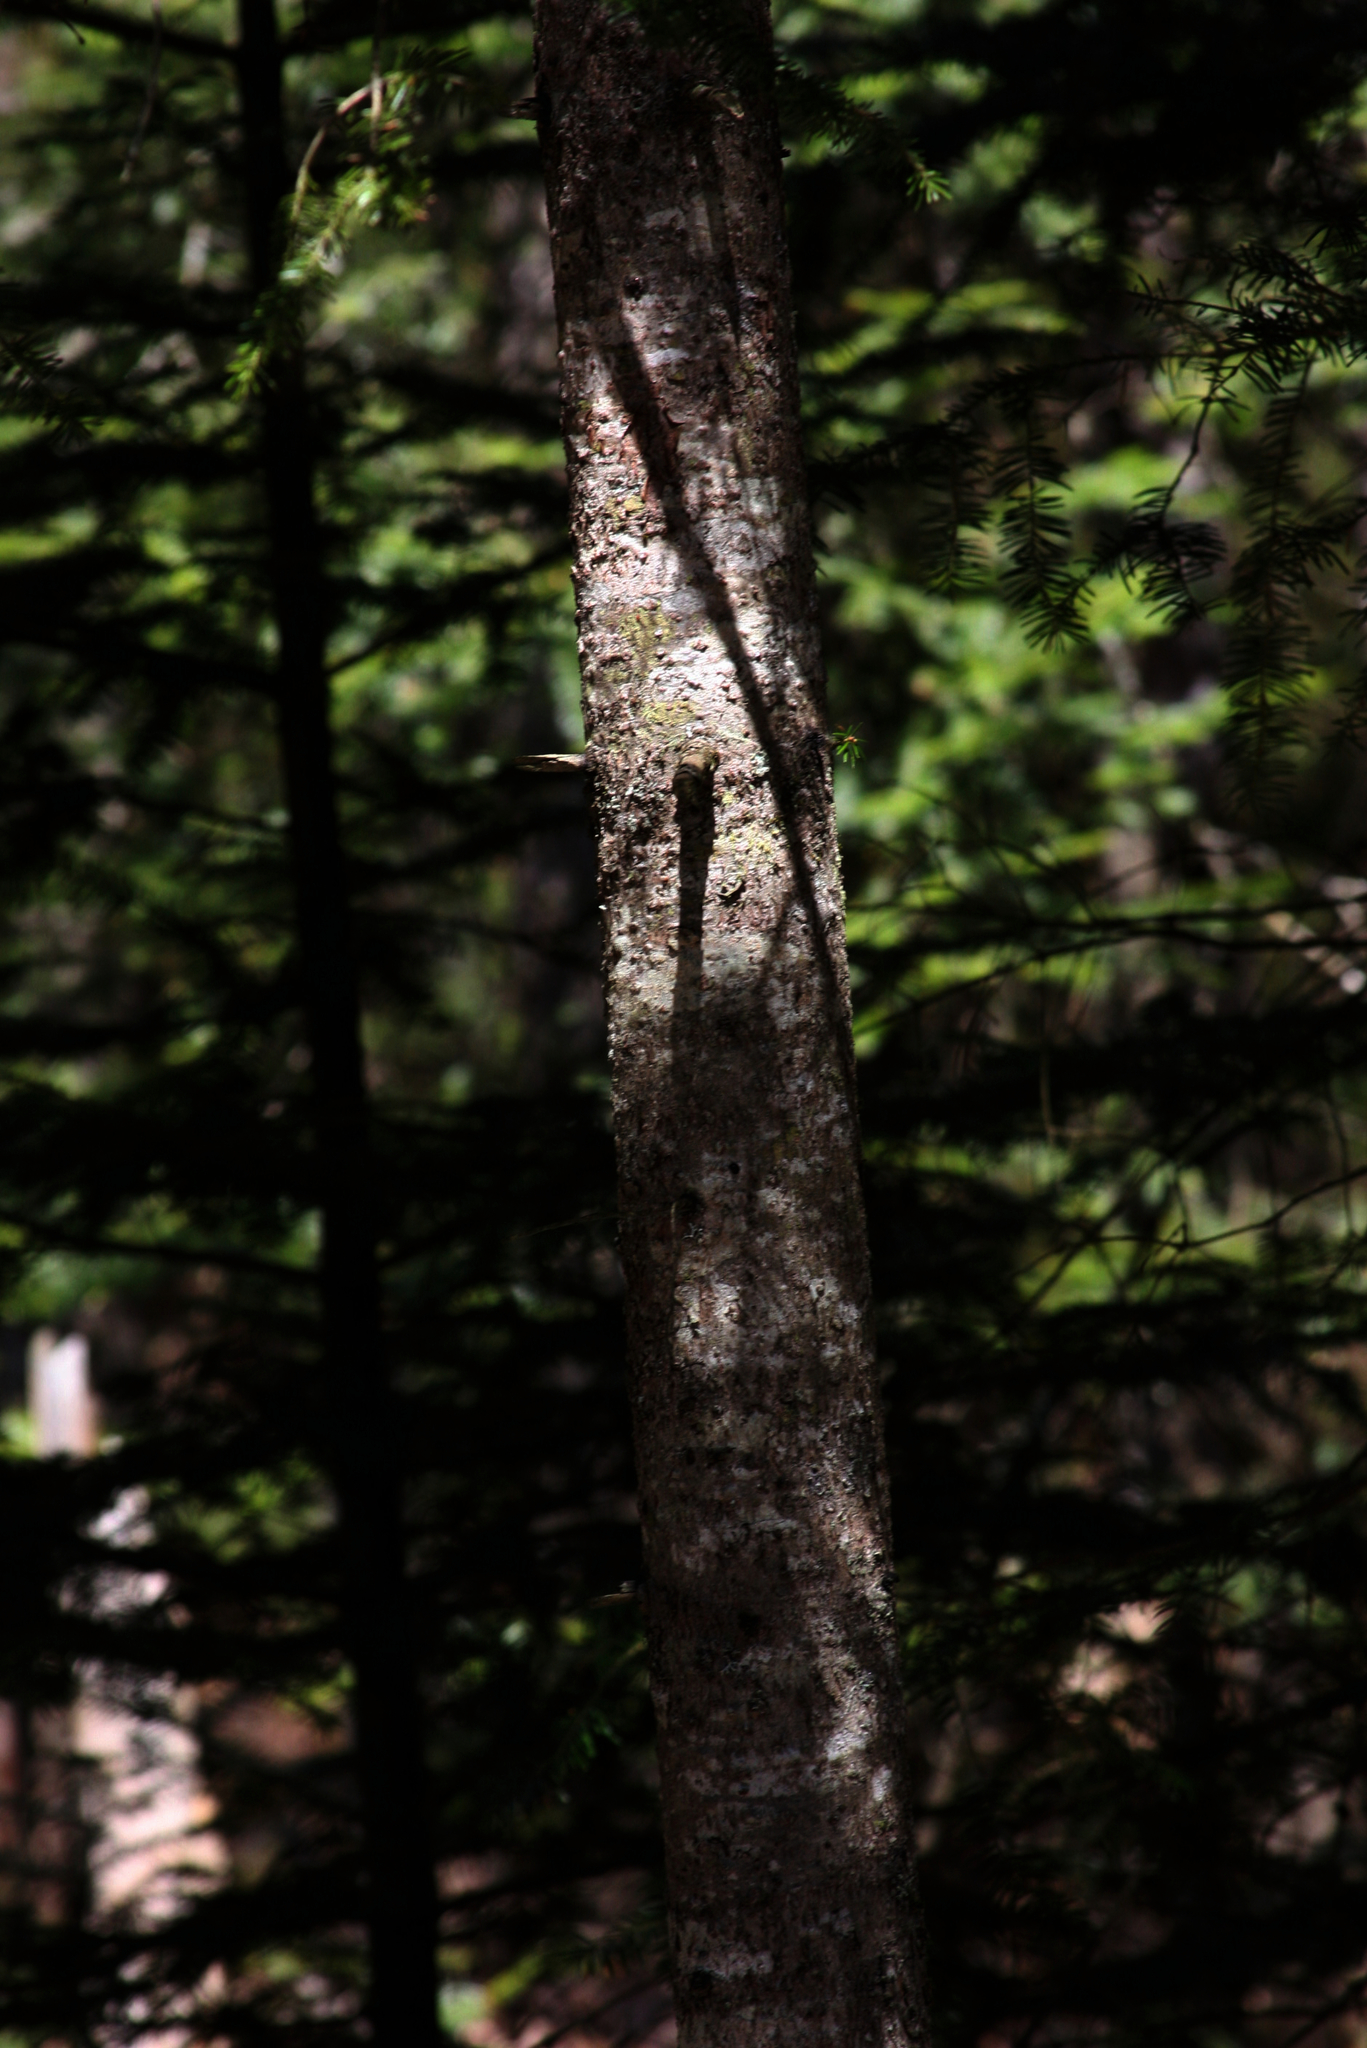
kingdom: Plantae
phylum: Tracheophyta
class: Pinopsida
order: Pinales
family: Pinaceae
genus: Abies
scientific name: Abies balsamea
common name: Balsam fir
